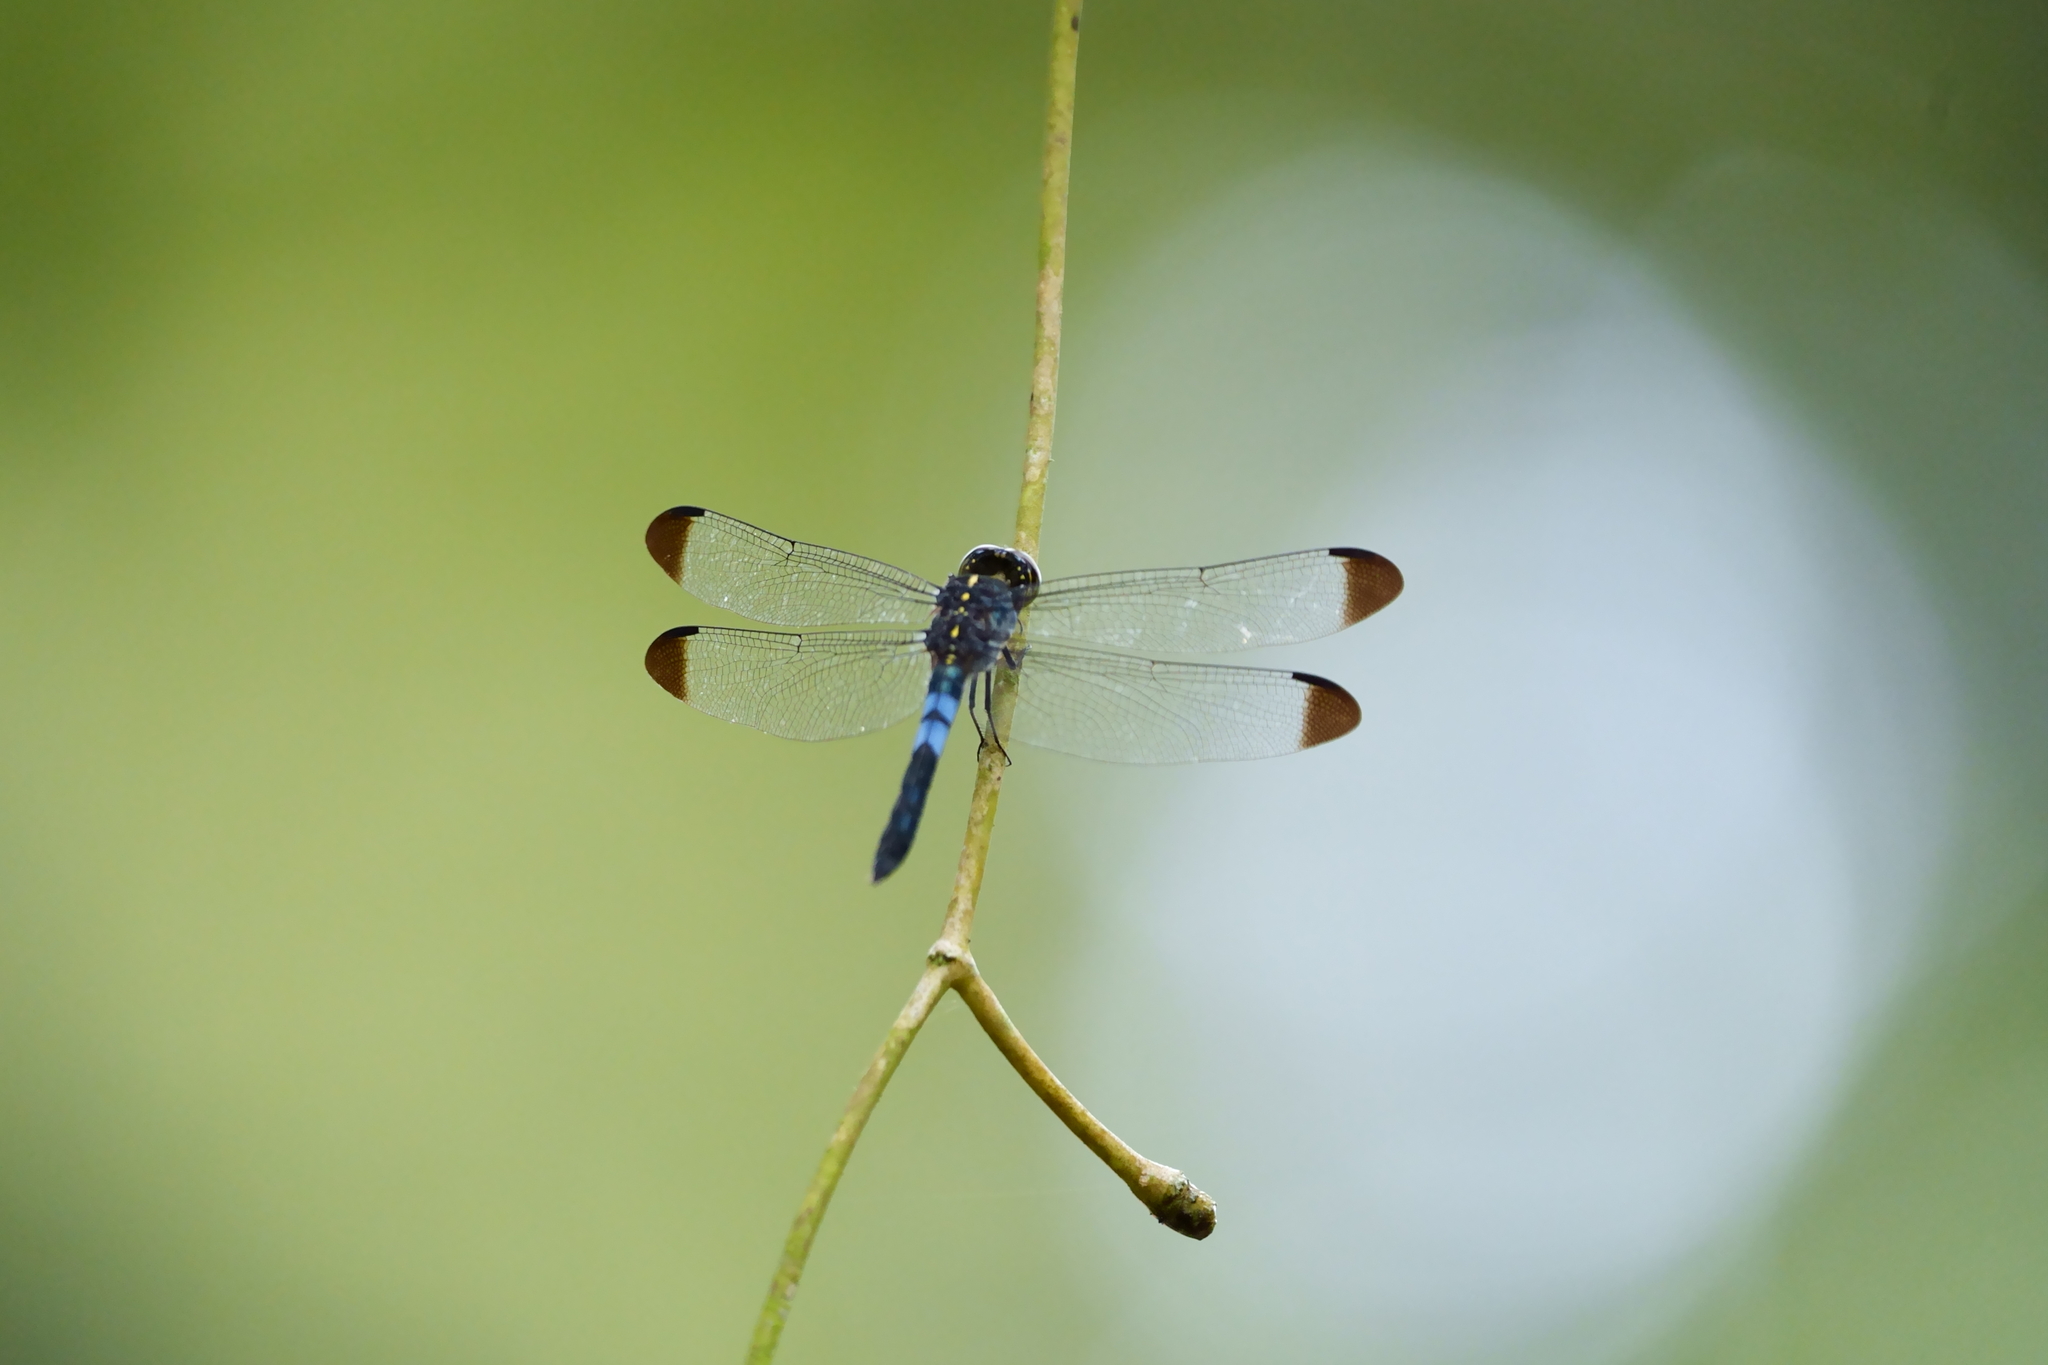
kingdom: Animalia
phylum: Arthropoda
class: Insecta
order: Odonata
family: Libellulidae
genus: Cratilla
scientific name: Cratilla metallica
